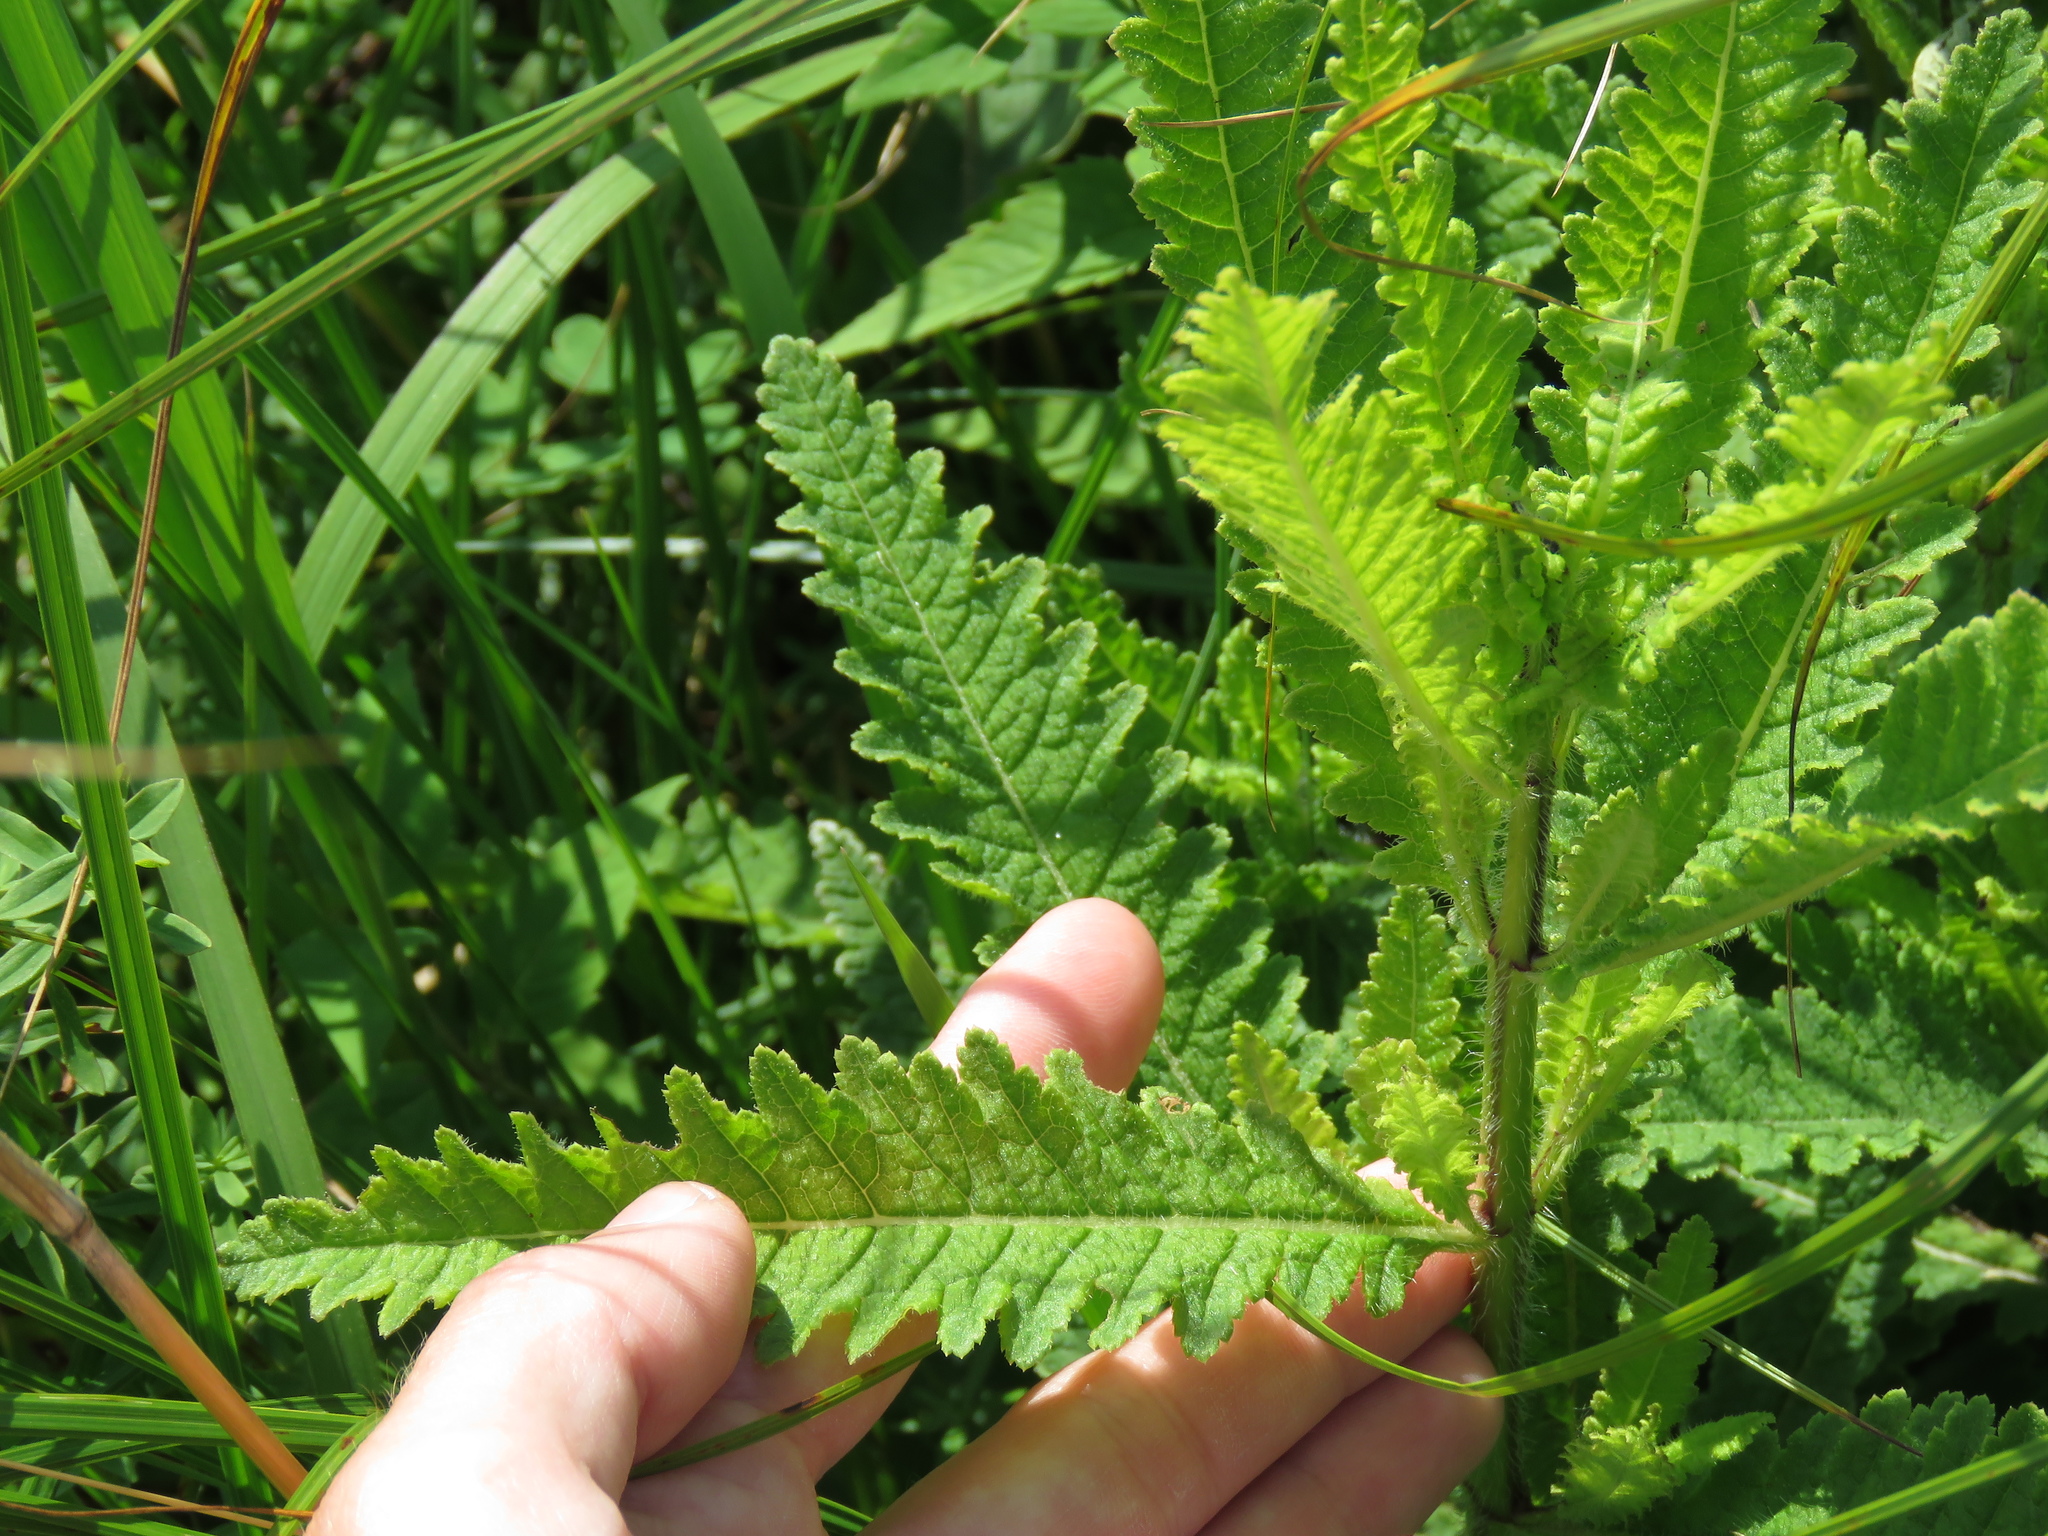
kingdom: Plantae
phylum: Tracheophyta
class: Magnoliopsida
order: Lamiales
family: Orobanchaceae
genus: Pedicularis
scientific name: Pedicularis lanceolata
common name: Swamp lousewort
